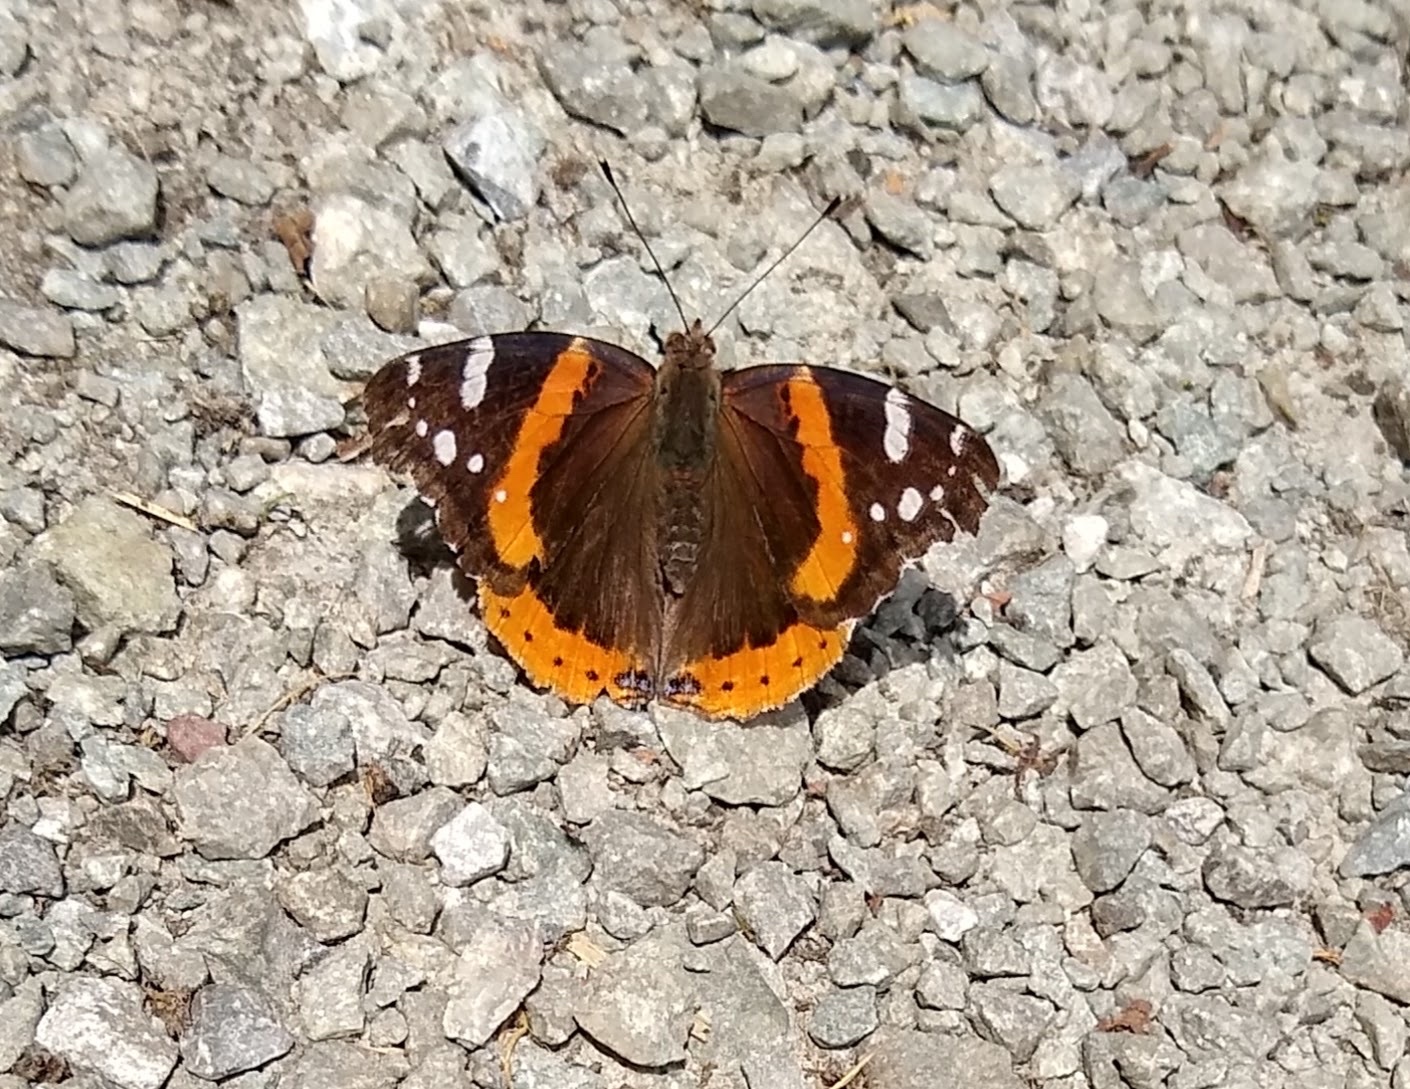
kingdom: Animalia
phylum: Arthropoda
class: Insecta
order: Lepidoptera
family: Nymphalidae
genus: Vanessa
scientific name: Vanessa atalanta
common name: Red admiral
